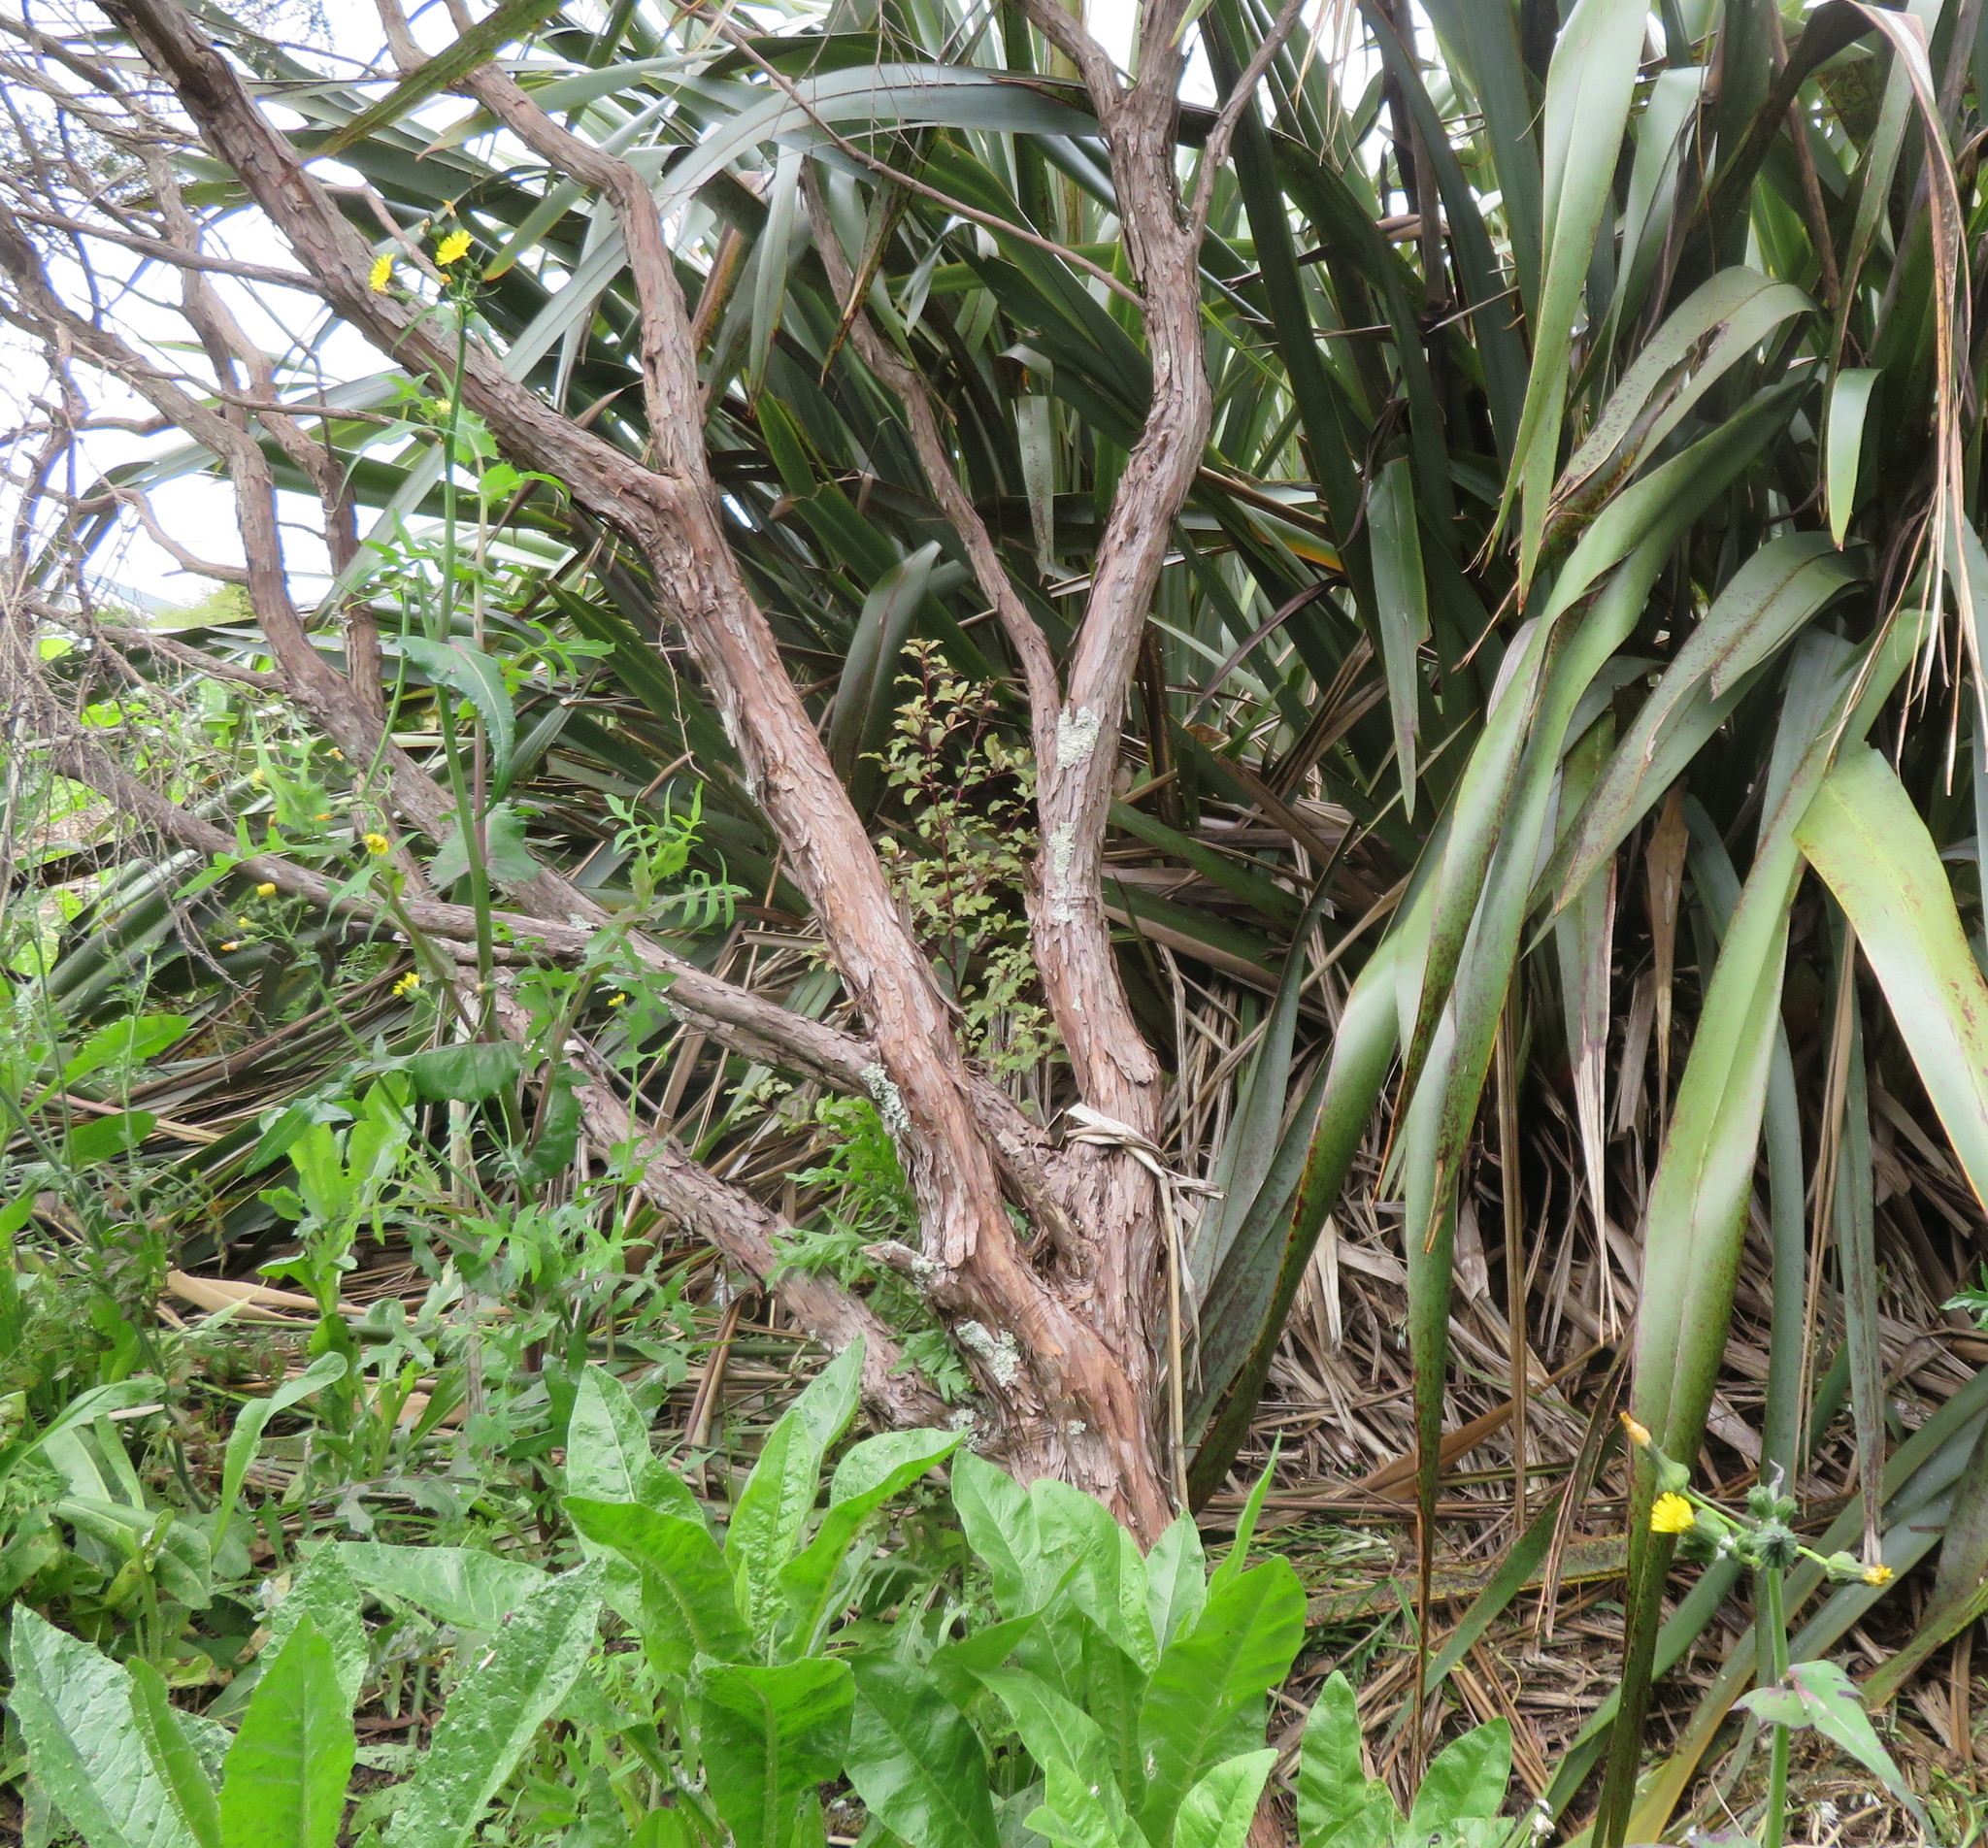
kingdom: Plantae
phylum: Tracheophyta
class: Magnoliopsida
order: Ericales
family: Primulaceae
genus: Myrsine
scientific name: Myrsine australis
